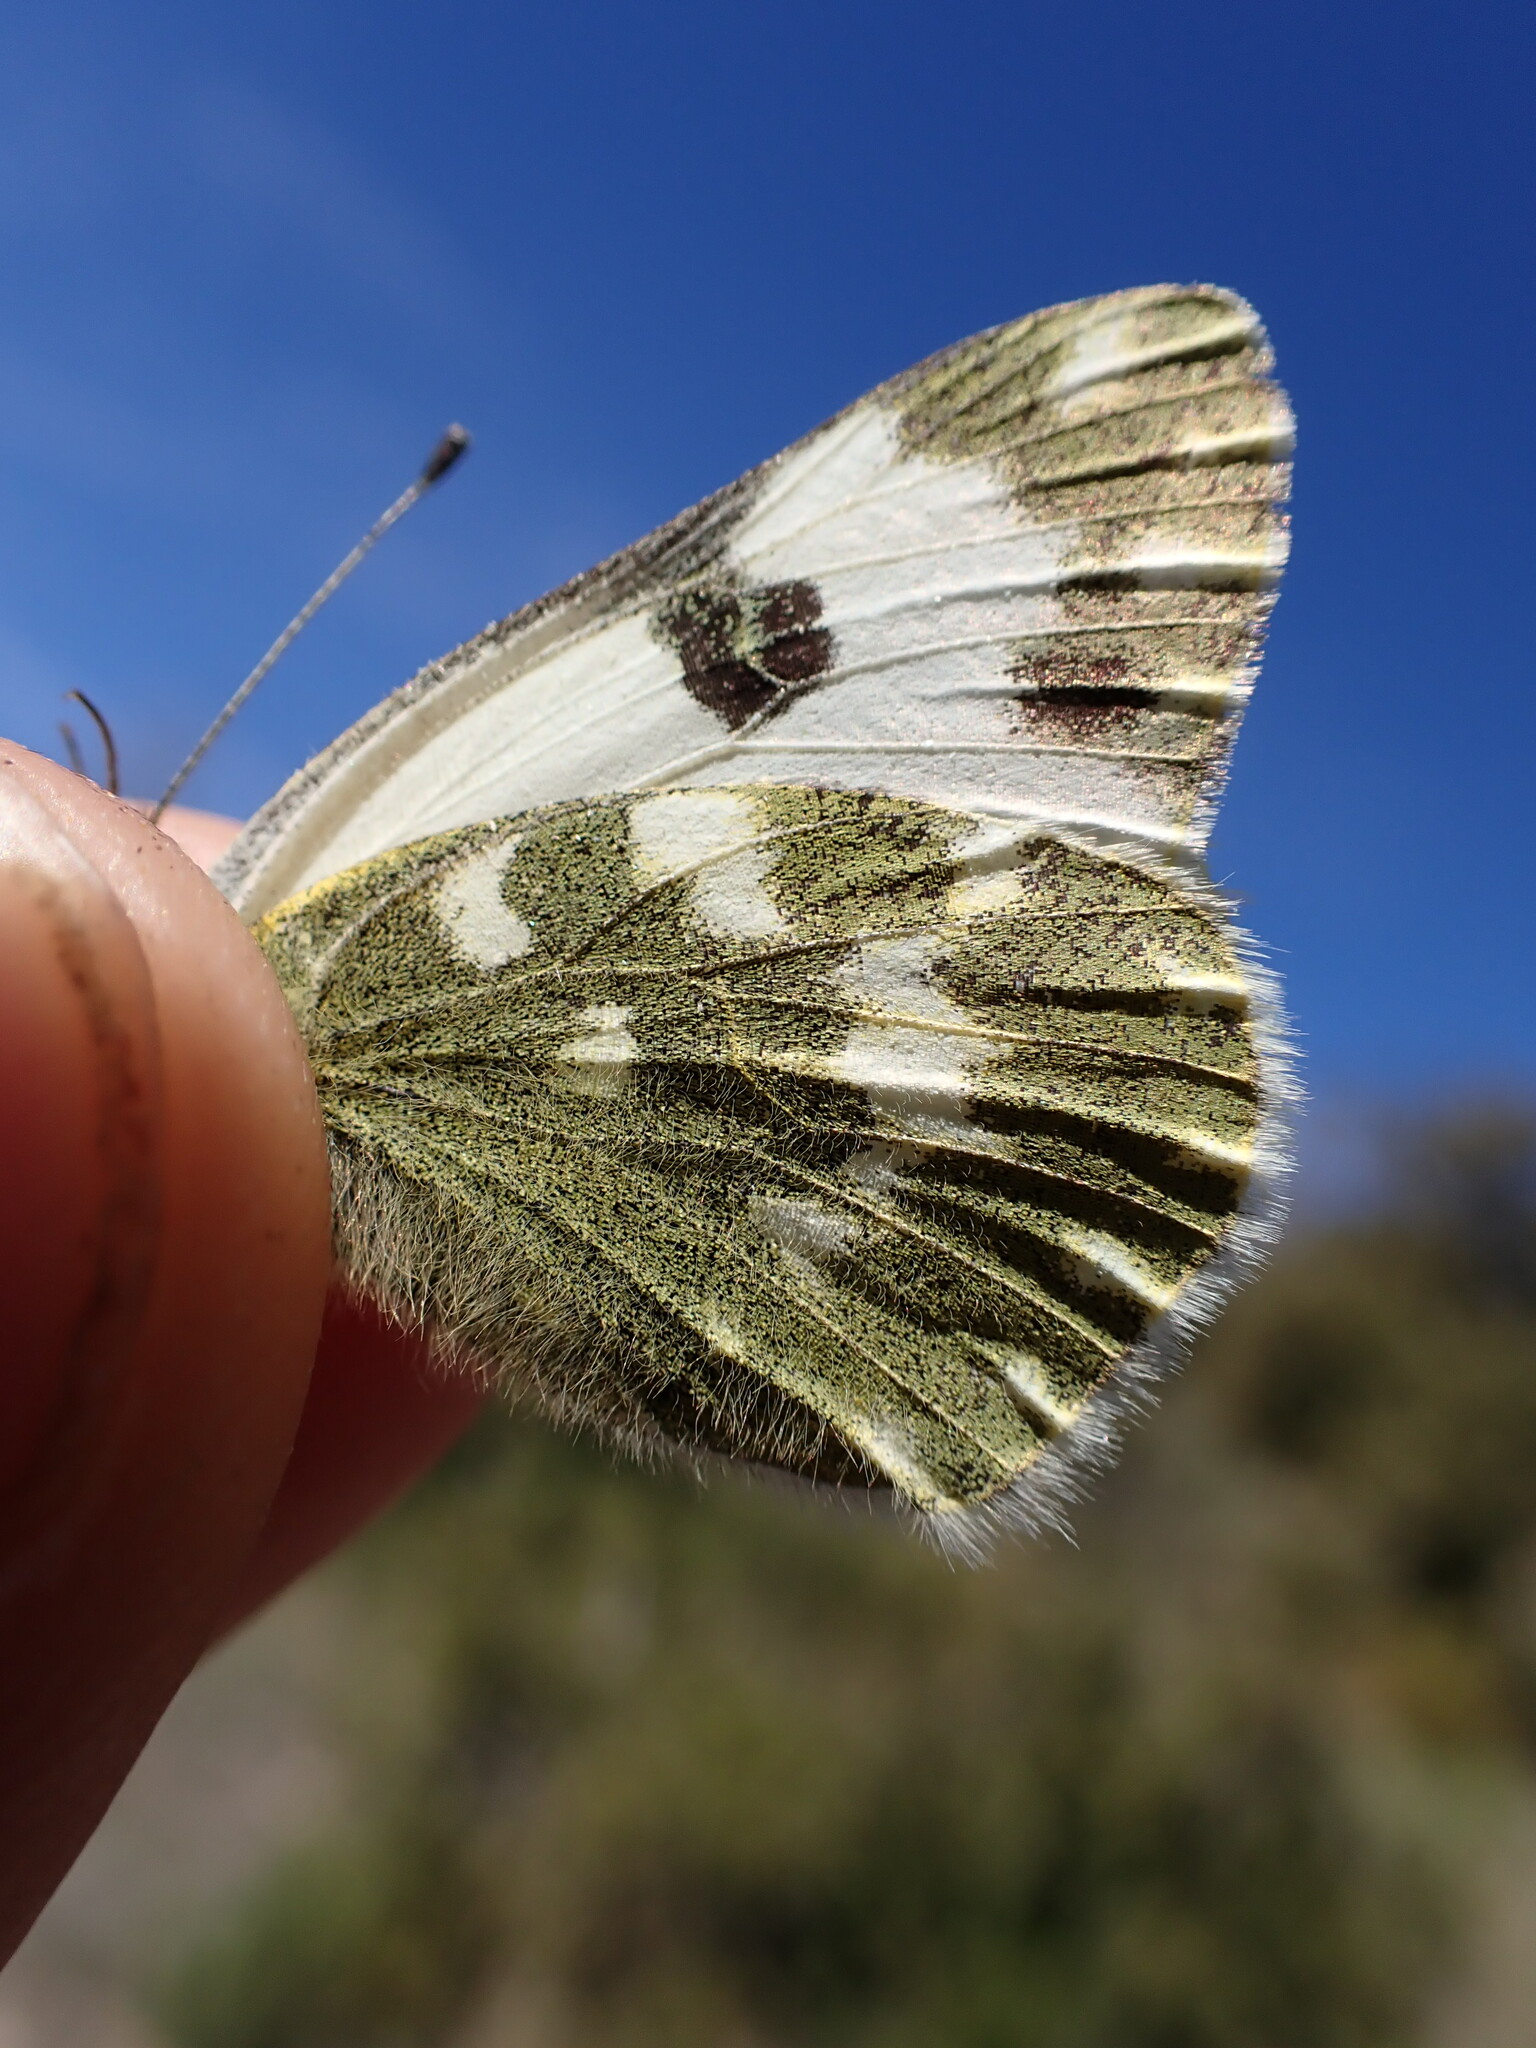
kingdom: Animalia
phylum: Arthropoda
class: Insecta
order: Lepidoptera
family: Pieridae
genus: Pontia
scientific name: Pontia daplidice
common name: Bath white
